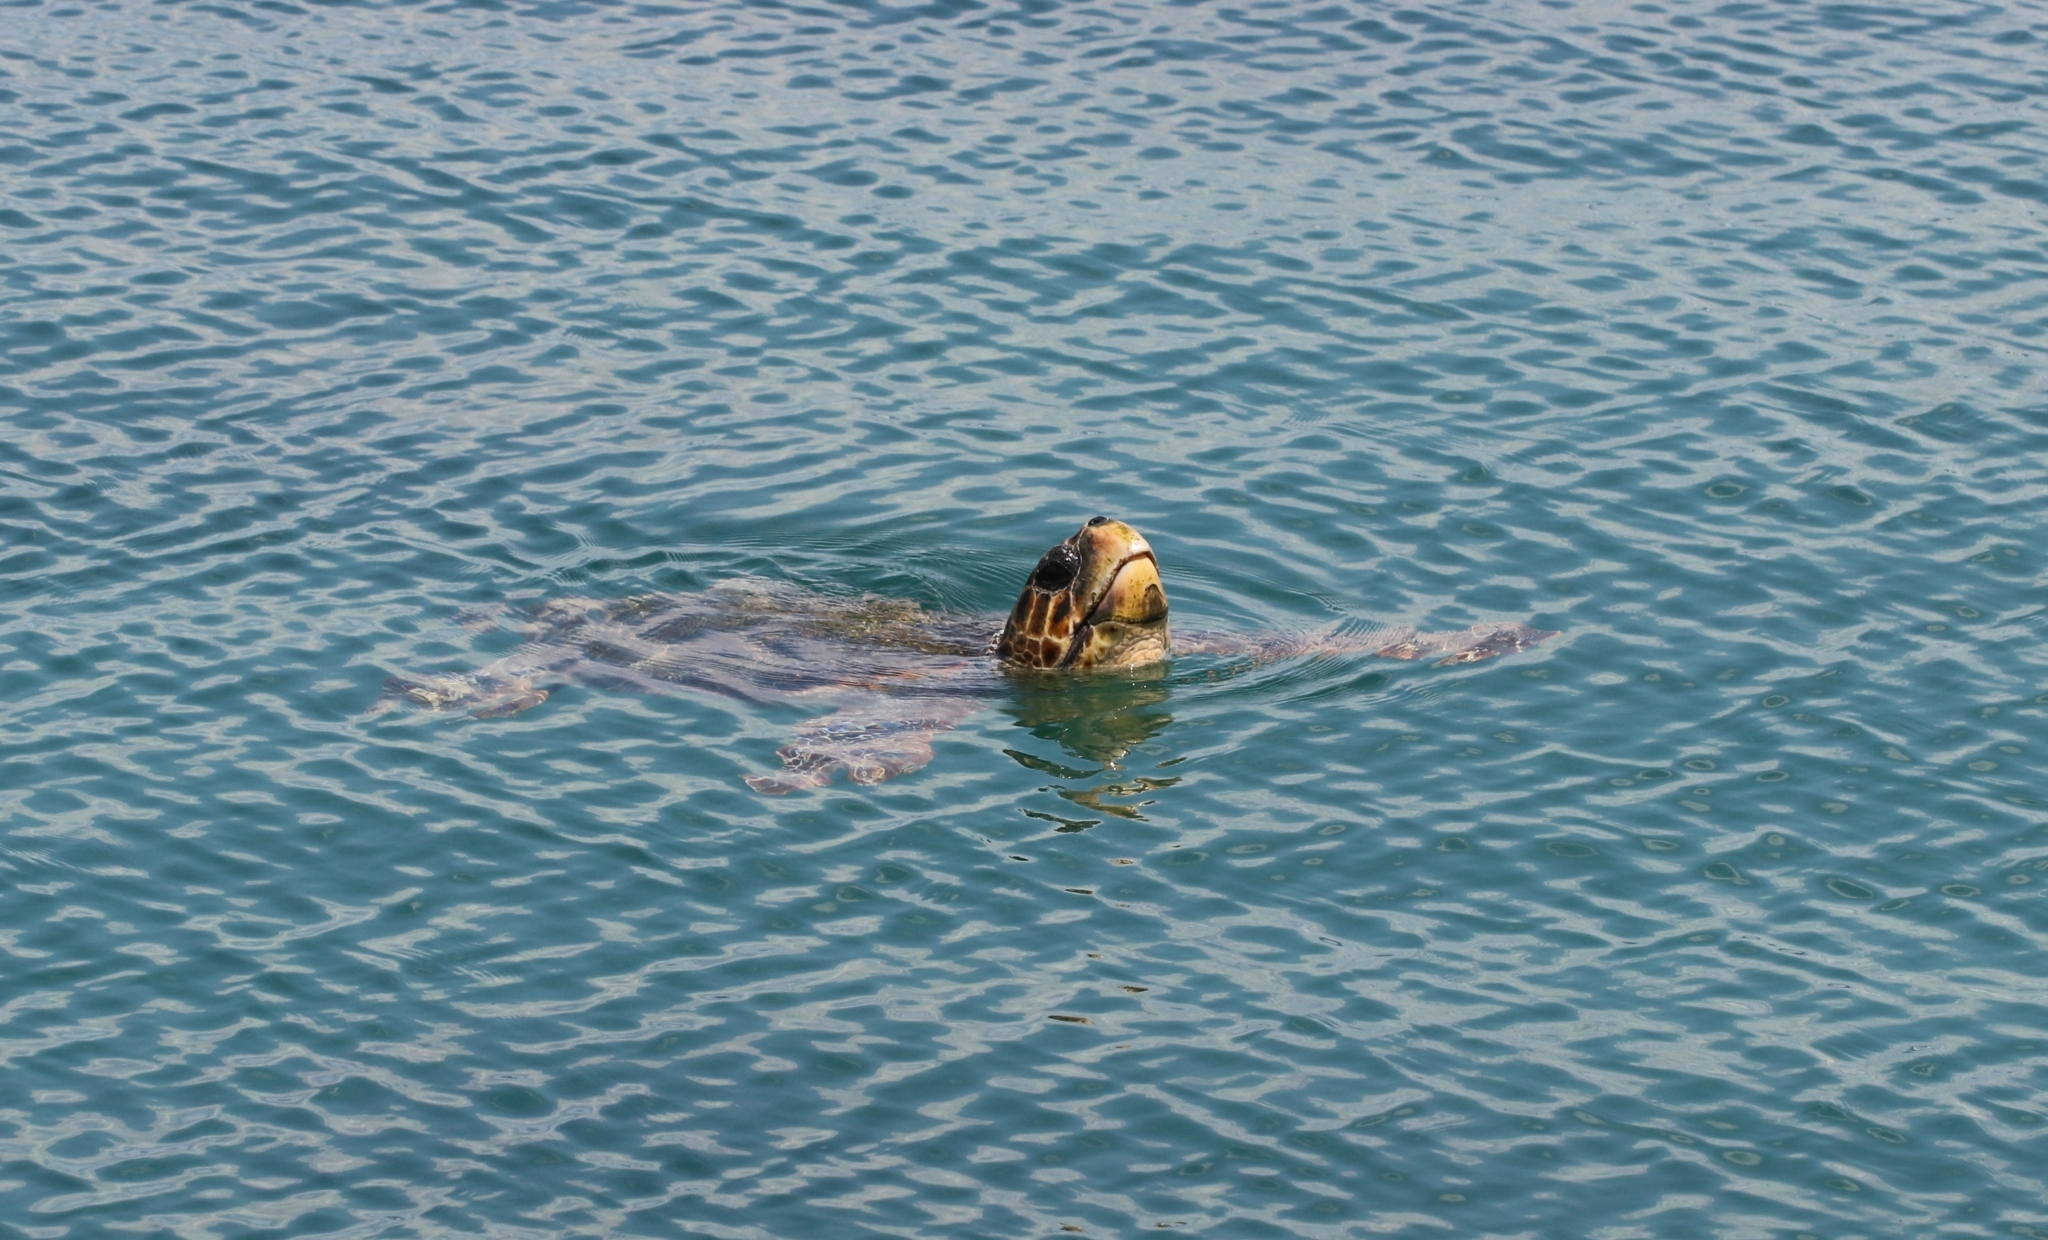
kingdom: Animalia
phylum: Chordata
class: Testudines
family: Cheloniidae
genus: Caretta
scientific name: Caretta caretta
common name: Loggerhead sea turtle
